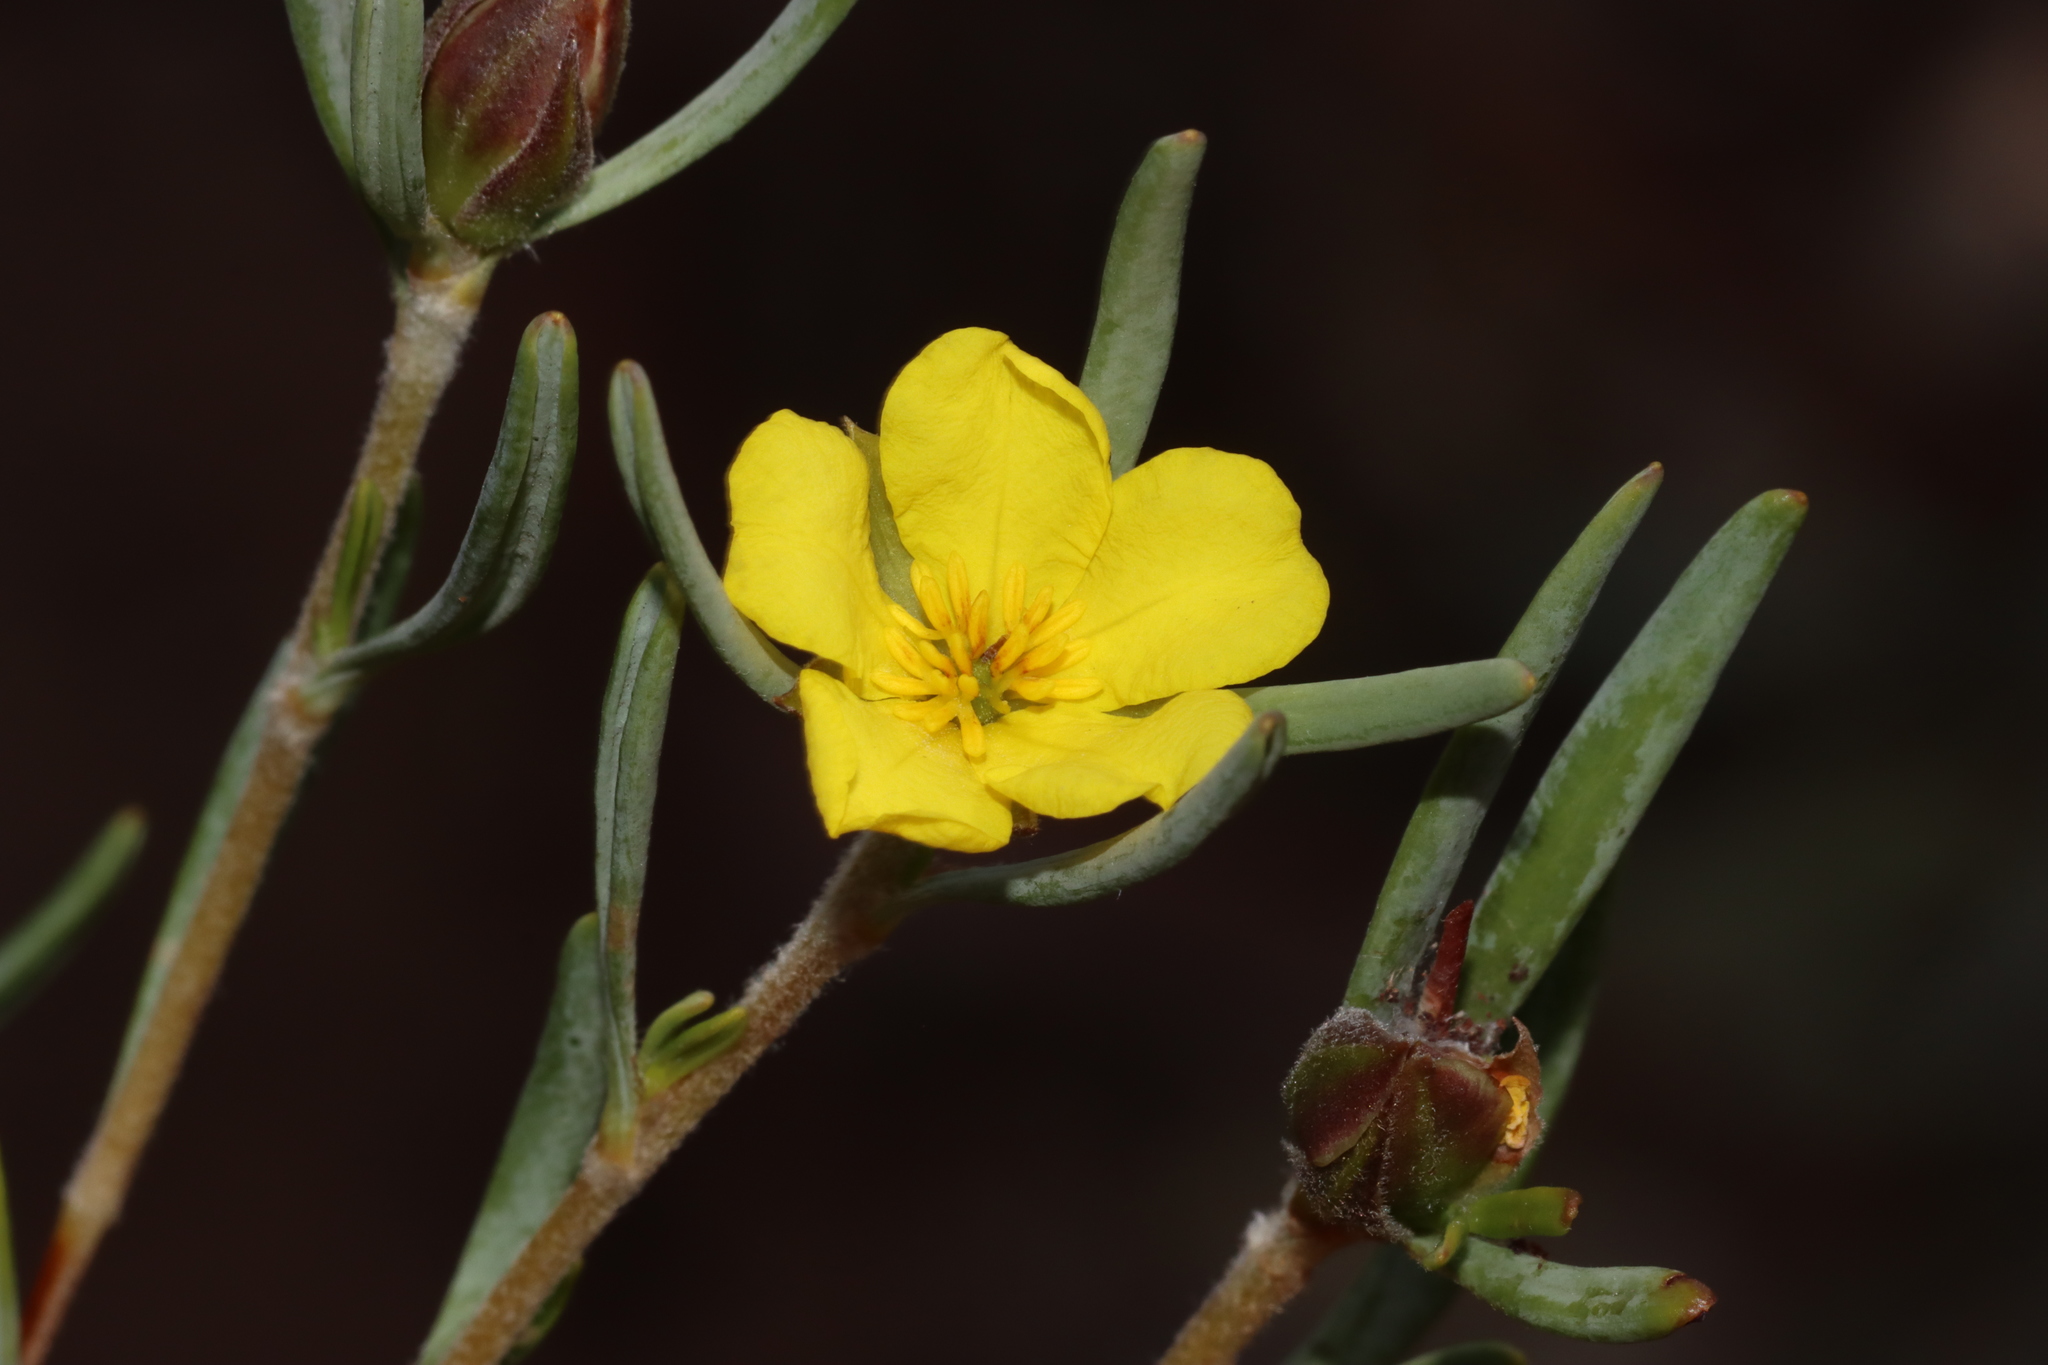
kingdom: Plantae
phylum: Tracheophyta
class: Magnoliopsida
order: Dilleniales
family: Dilleniaceae
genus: Hibbertia
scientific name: Hibbertia leucocrossa
